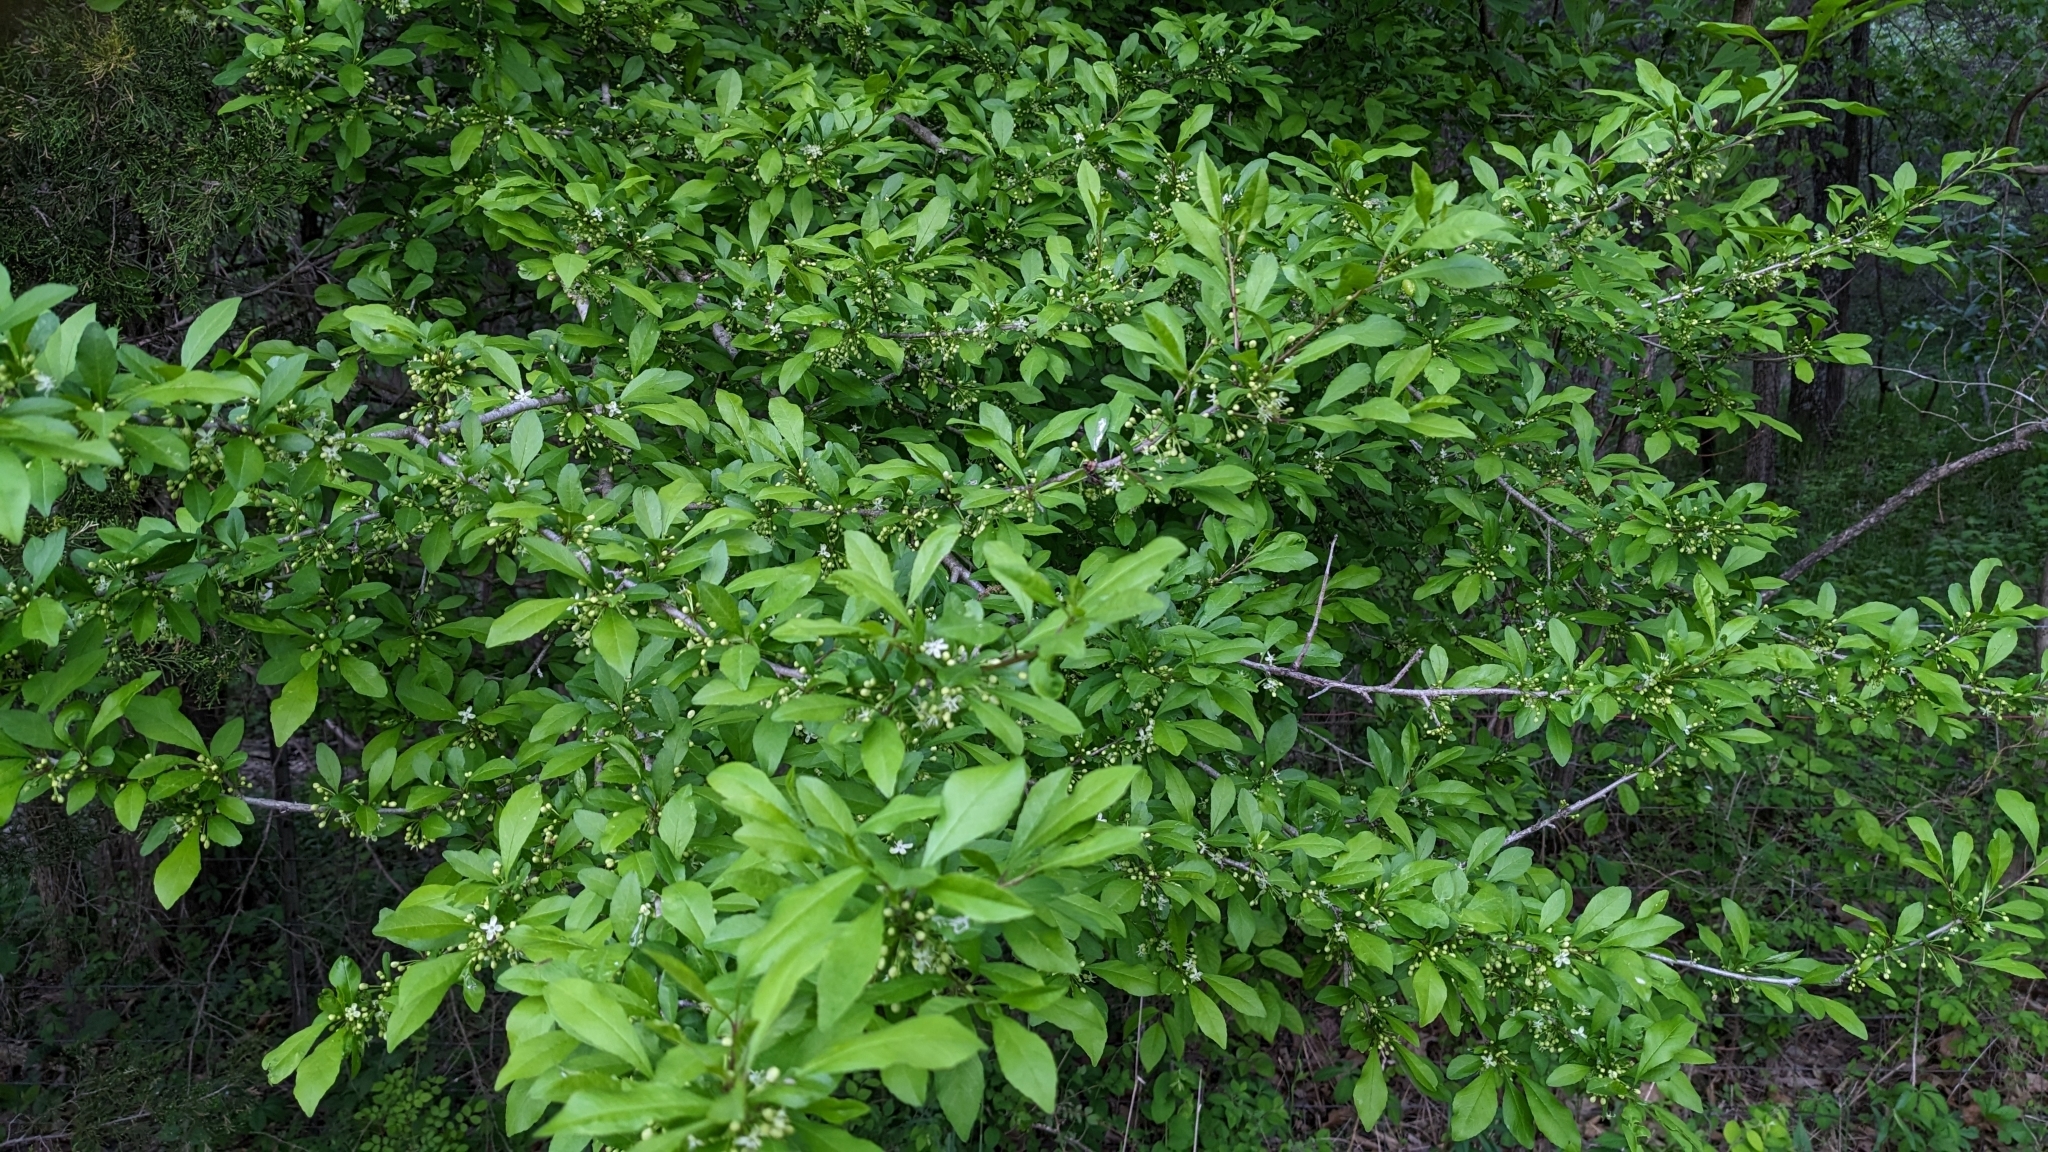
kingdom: Plantae
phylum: Tracheophyta
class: Magnoliopsida
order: Aquifoliales
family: Aquifoliaceae
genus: Ilex
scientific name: Ilex decidua
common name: Possum-haw
